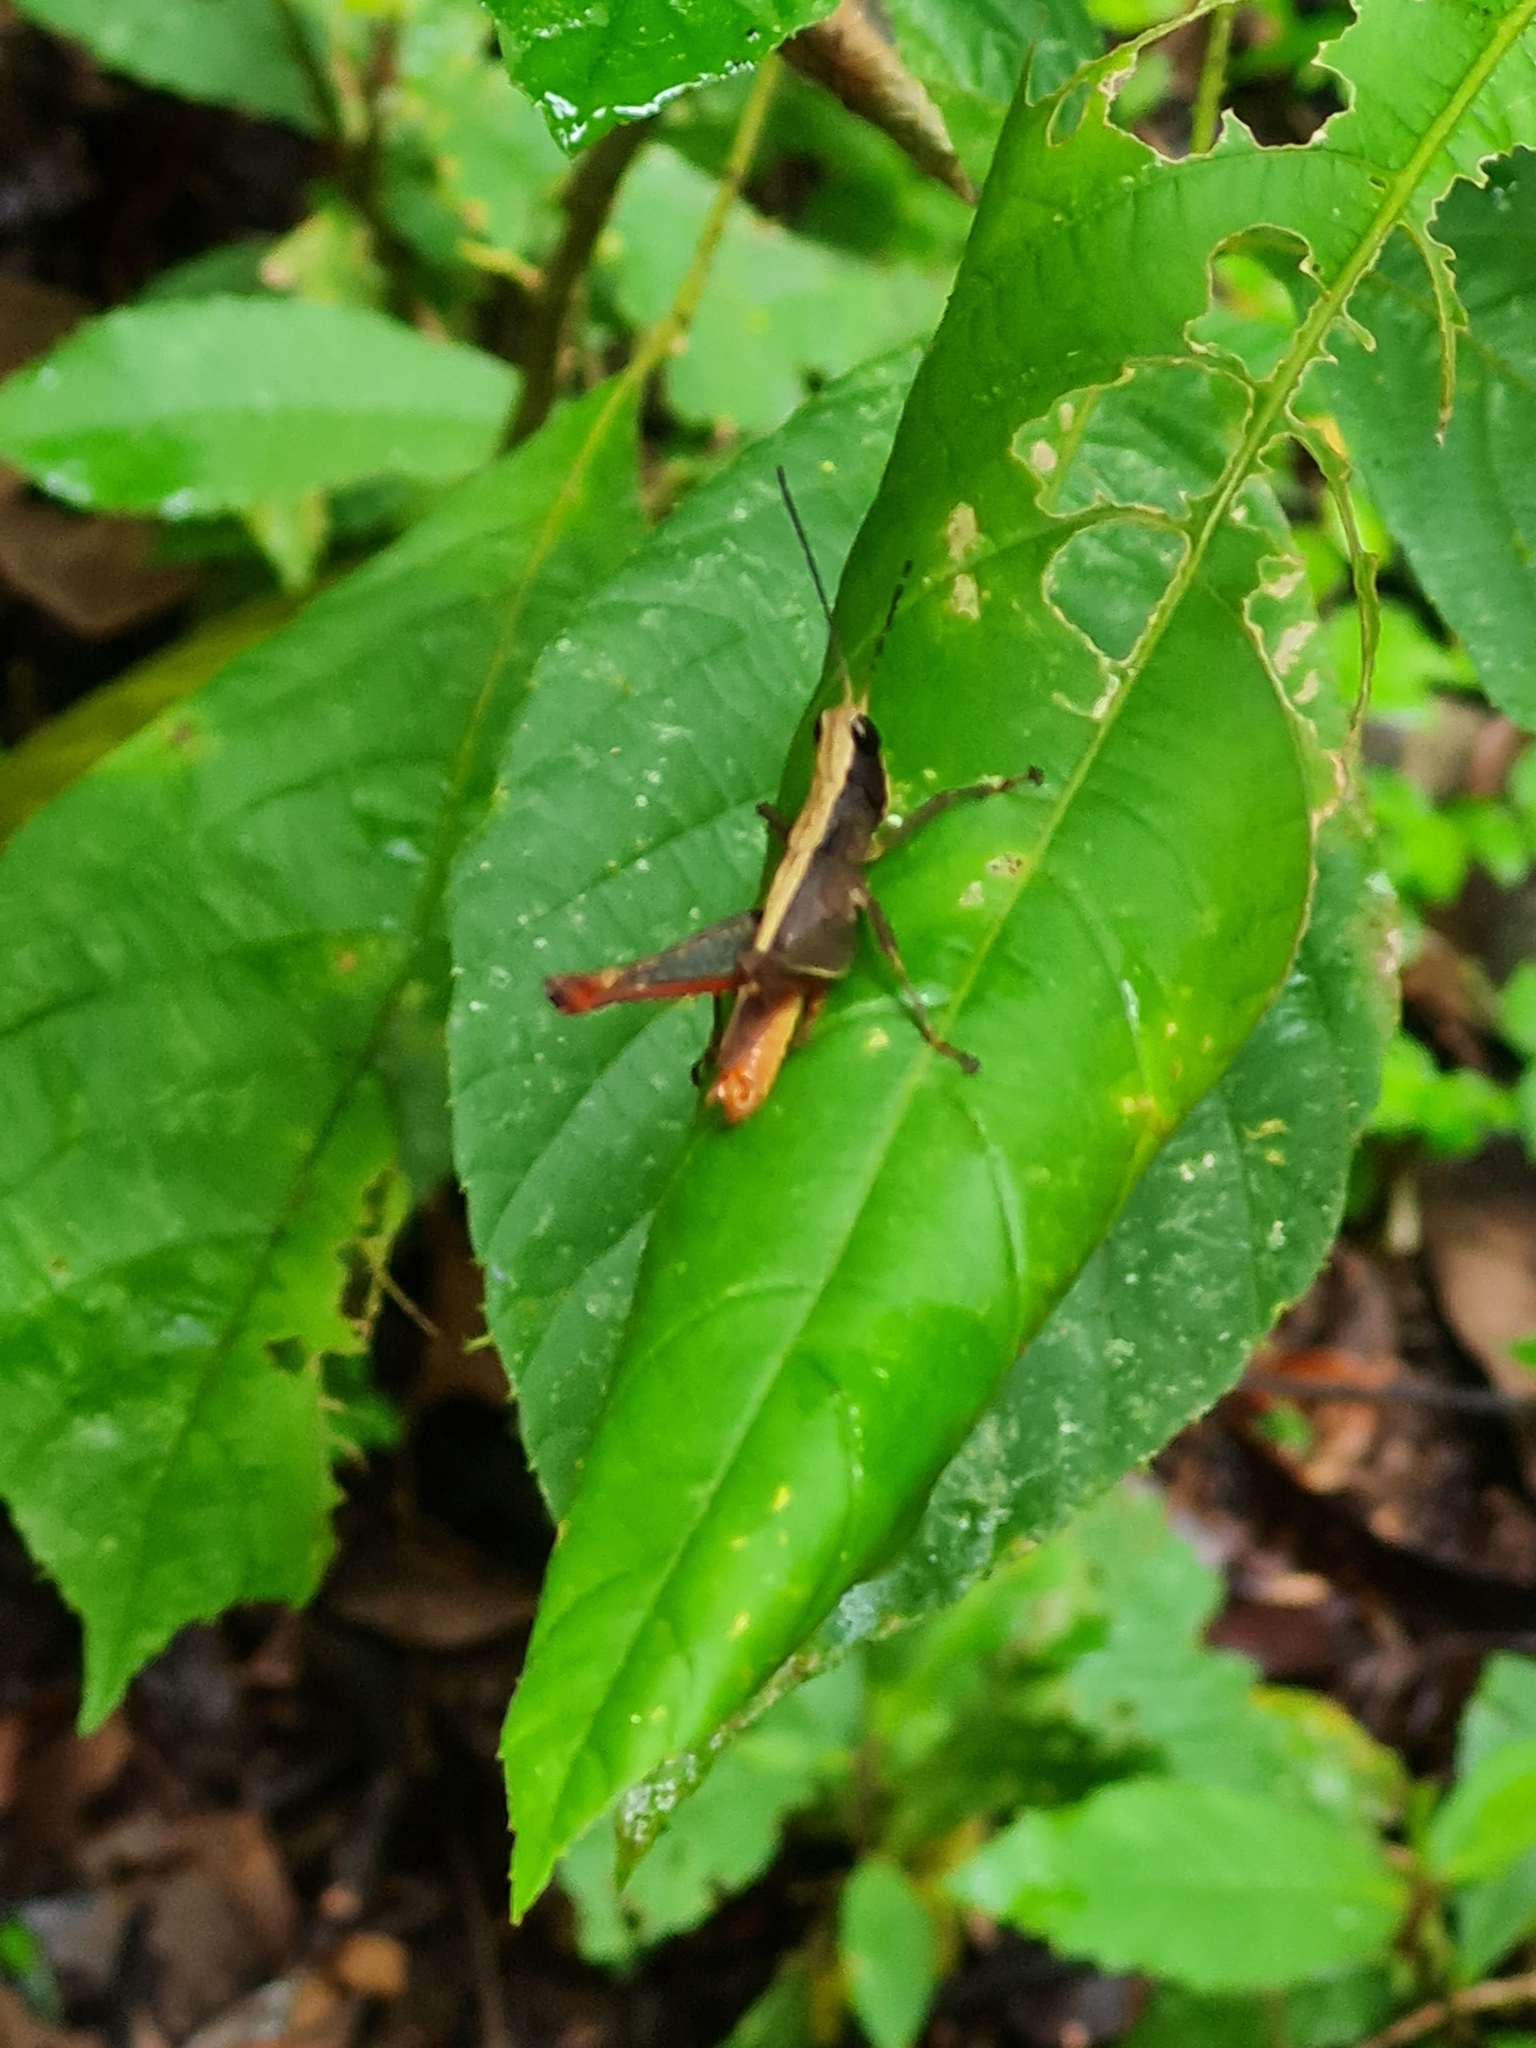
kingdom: Animalia
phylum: Arthropoda
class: Insecta
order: Orthoptera
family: Romaleidae
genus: Maculiparia
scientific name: Maculiparia rotundata
